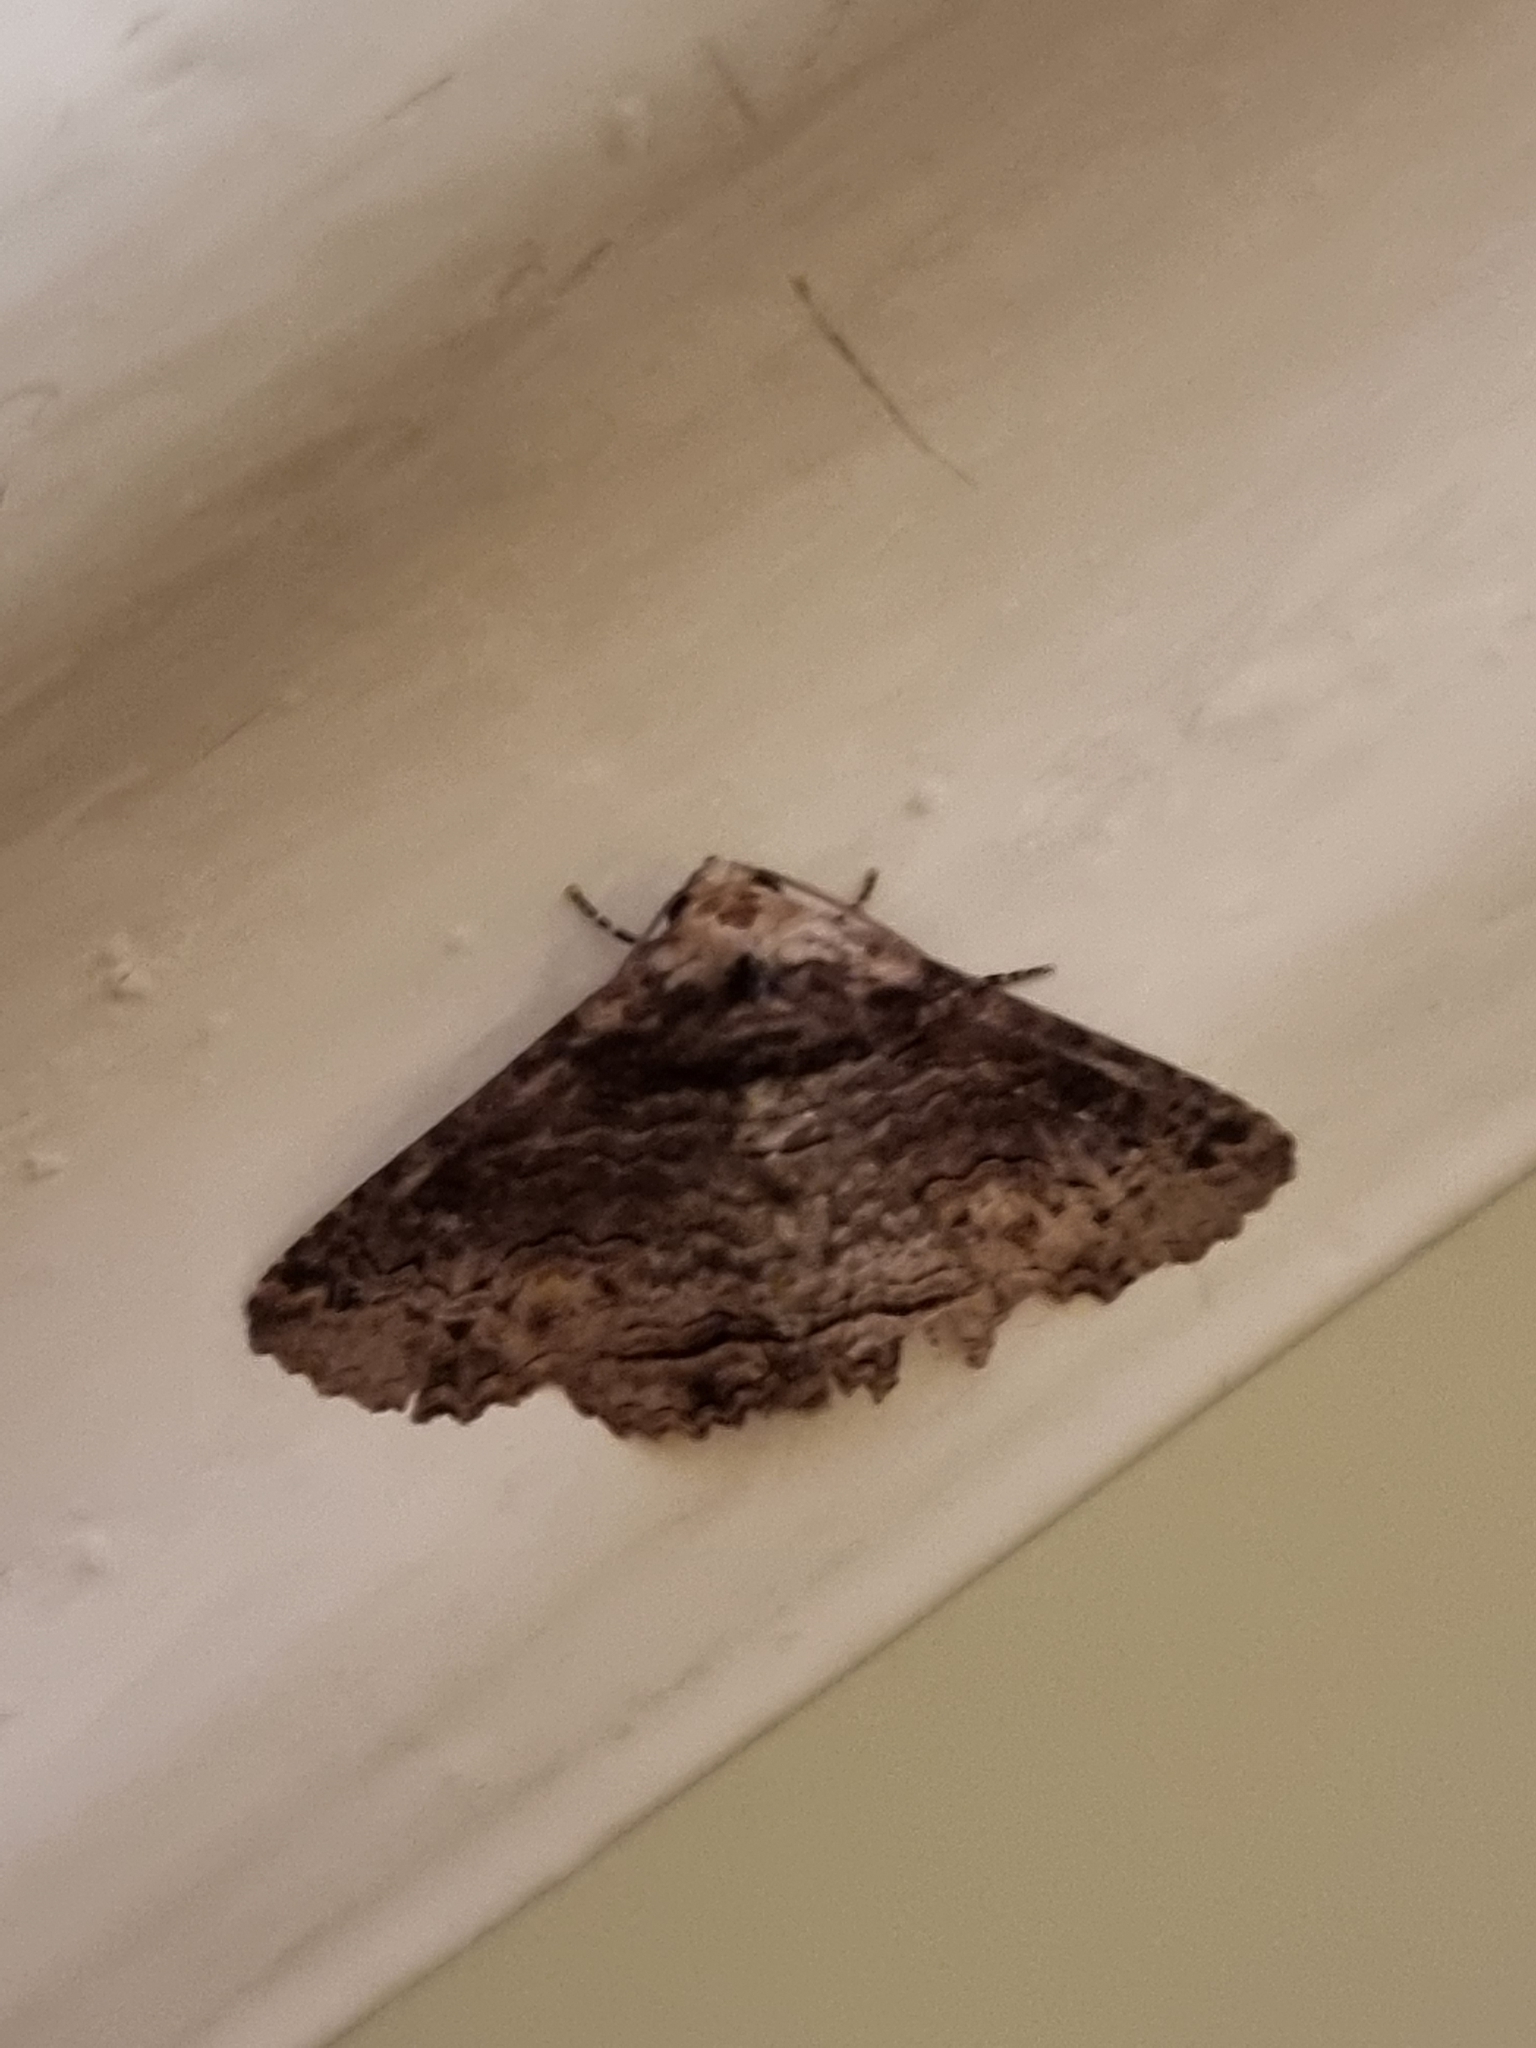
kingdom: Animalia
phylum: Arthropoda
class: Insecta
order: Lepidoptera
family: Erebidae
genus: Pericyma
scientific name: Pericyma cruegeri
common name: Poinciana looper
